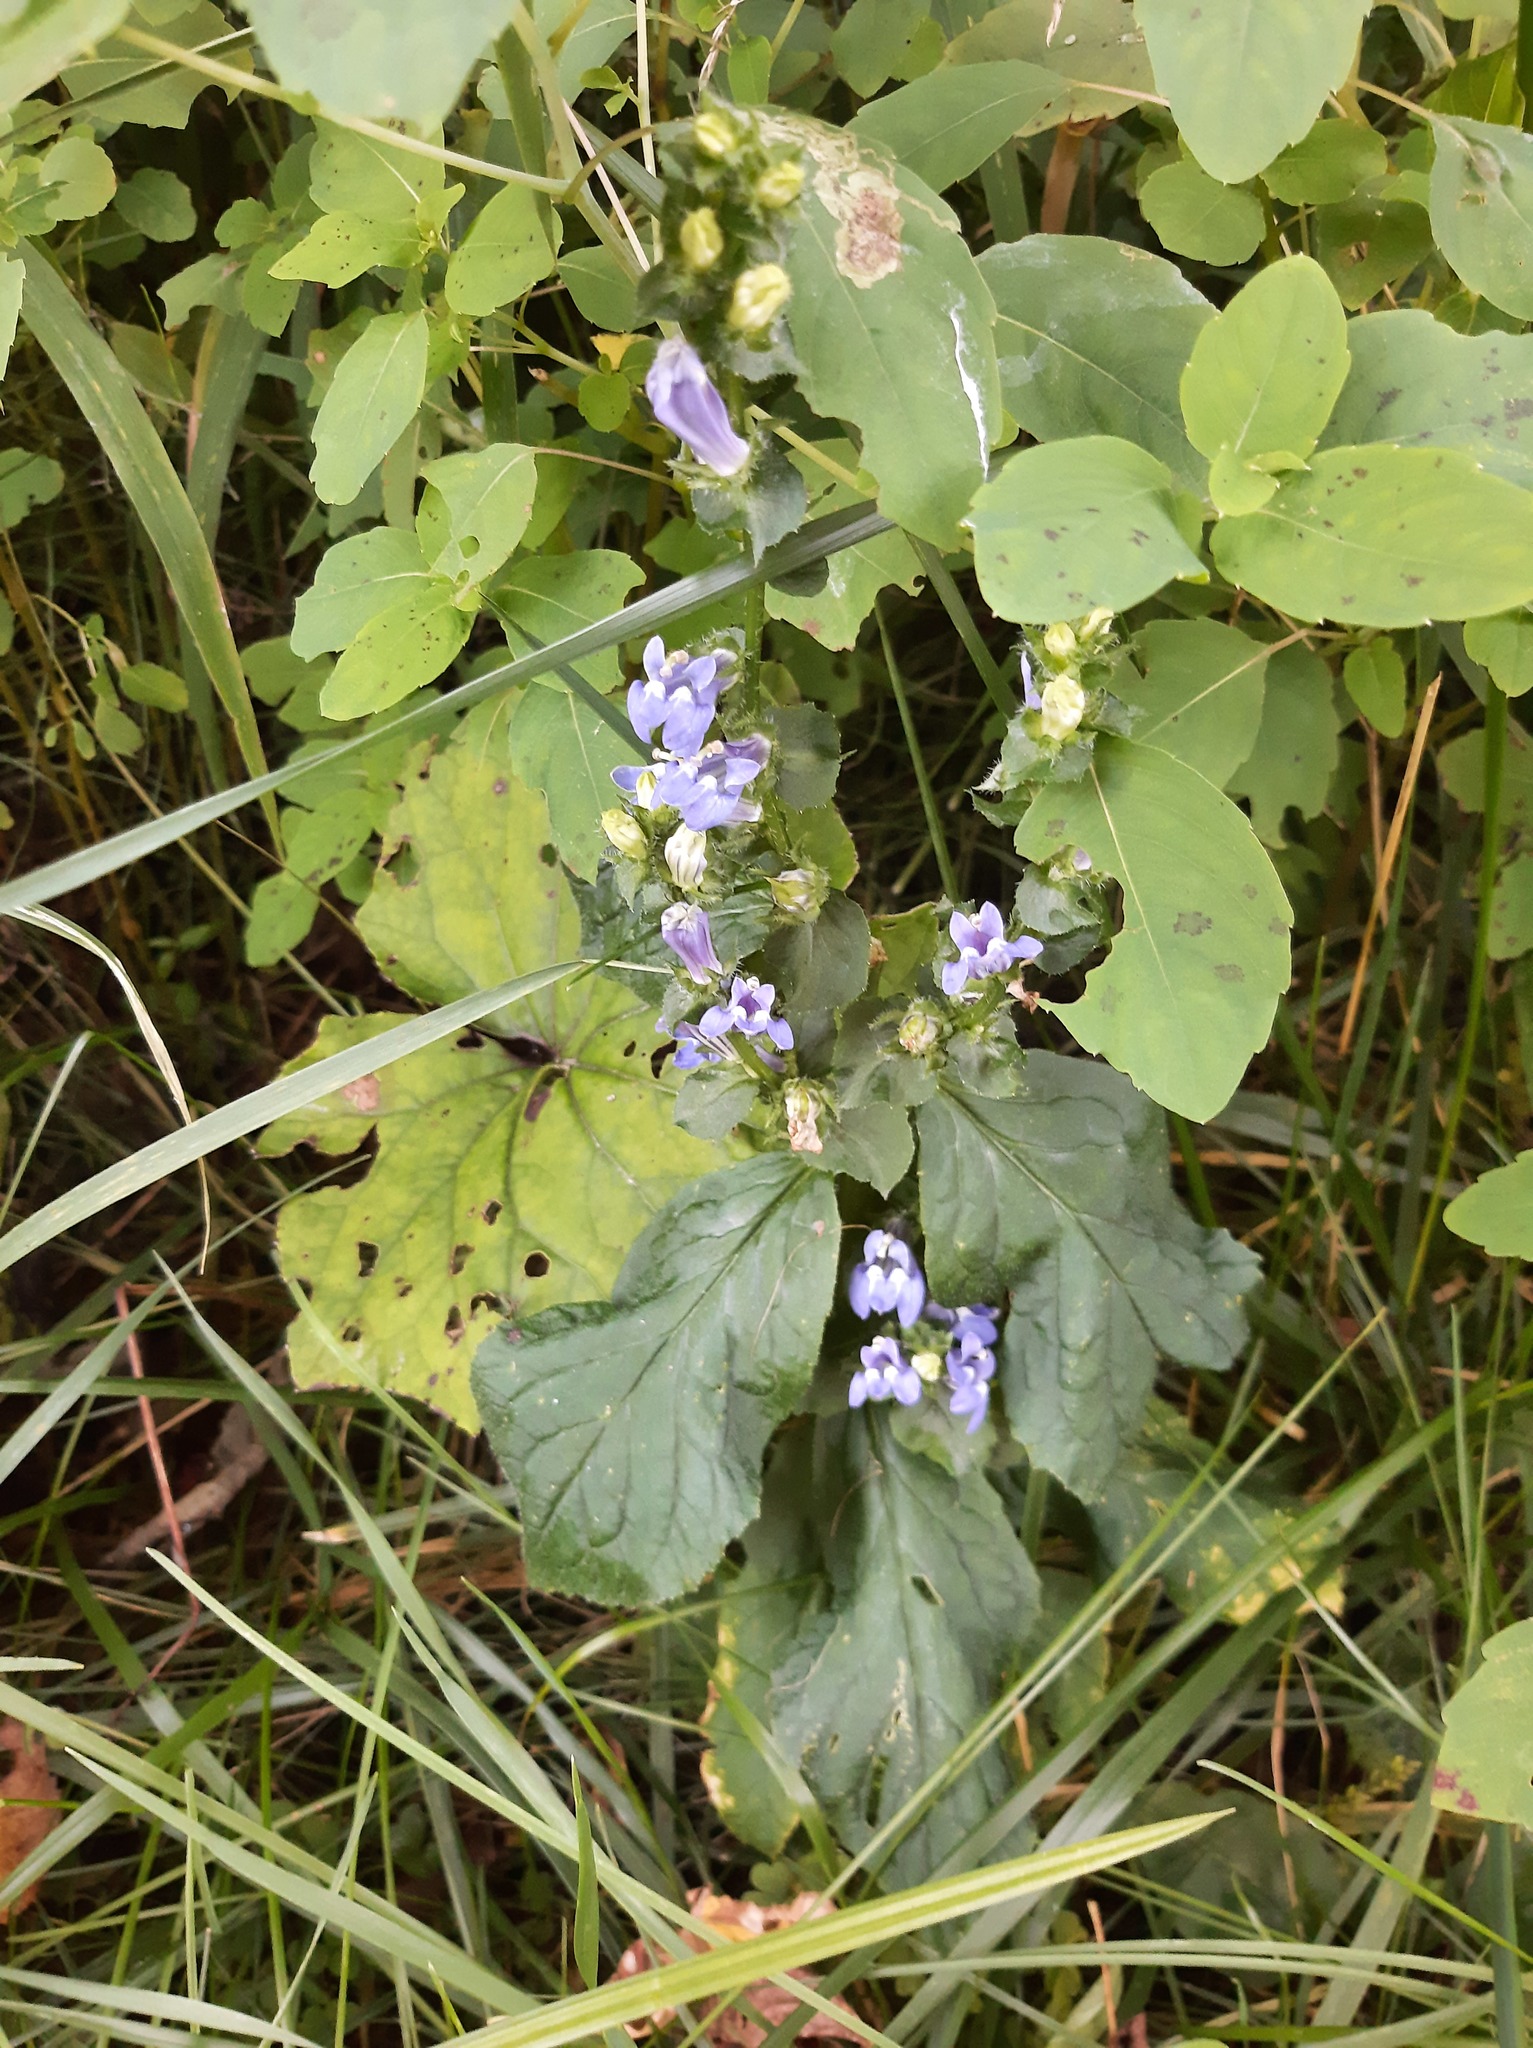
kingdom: Plantae
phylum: Tracheophyta
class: Magnoliopsida
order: Asterales
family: Campanulaceae
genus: Lobelia
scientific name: Lobelia siphilitica
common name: Great lobelia
